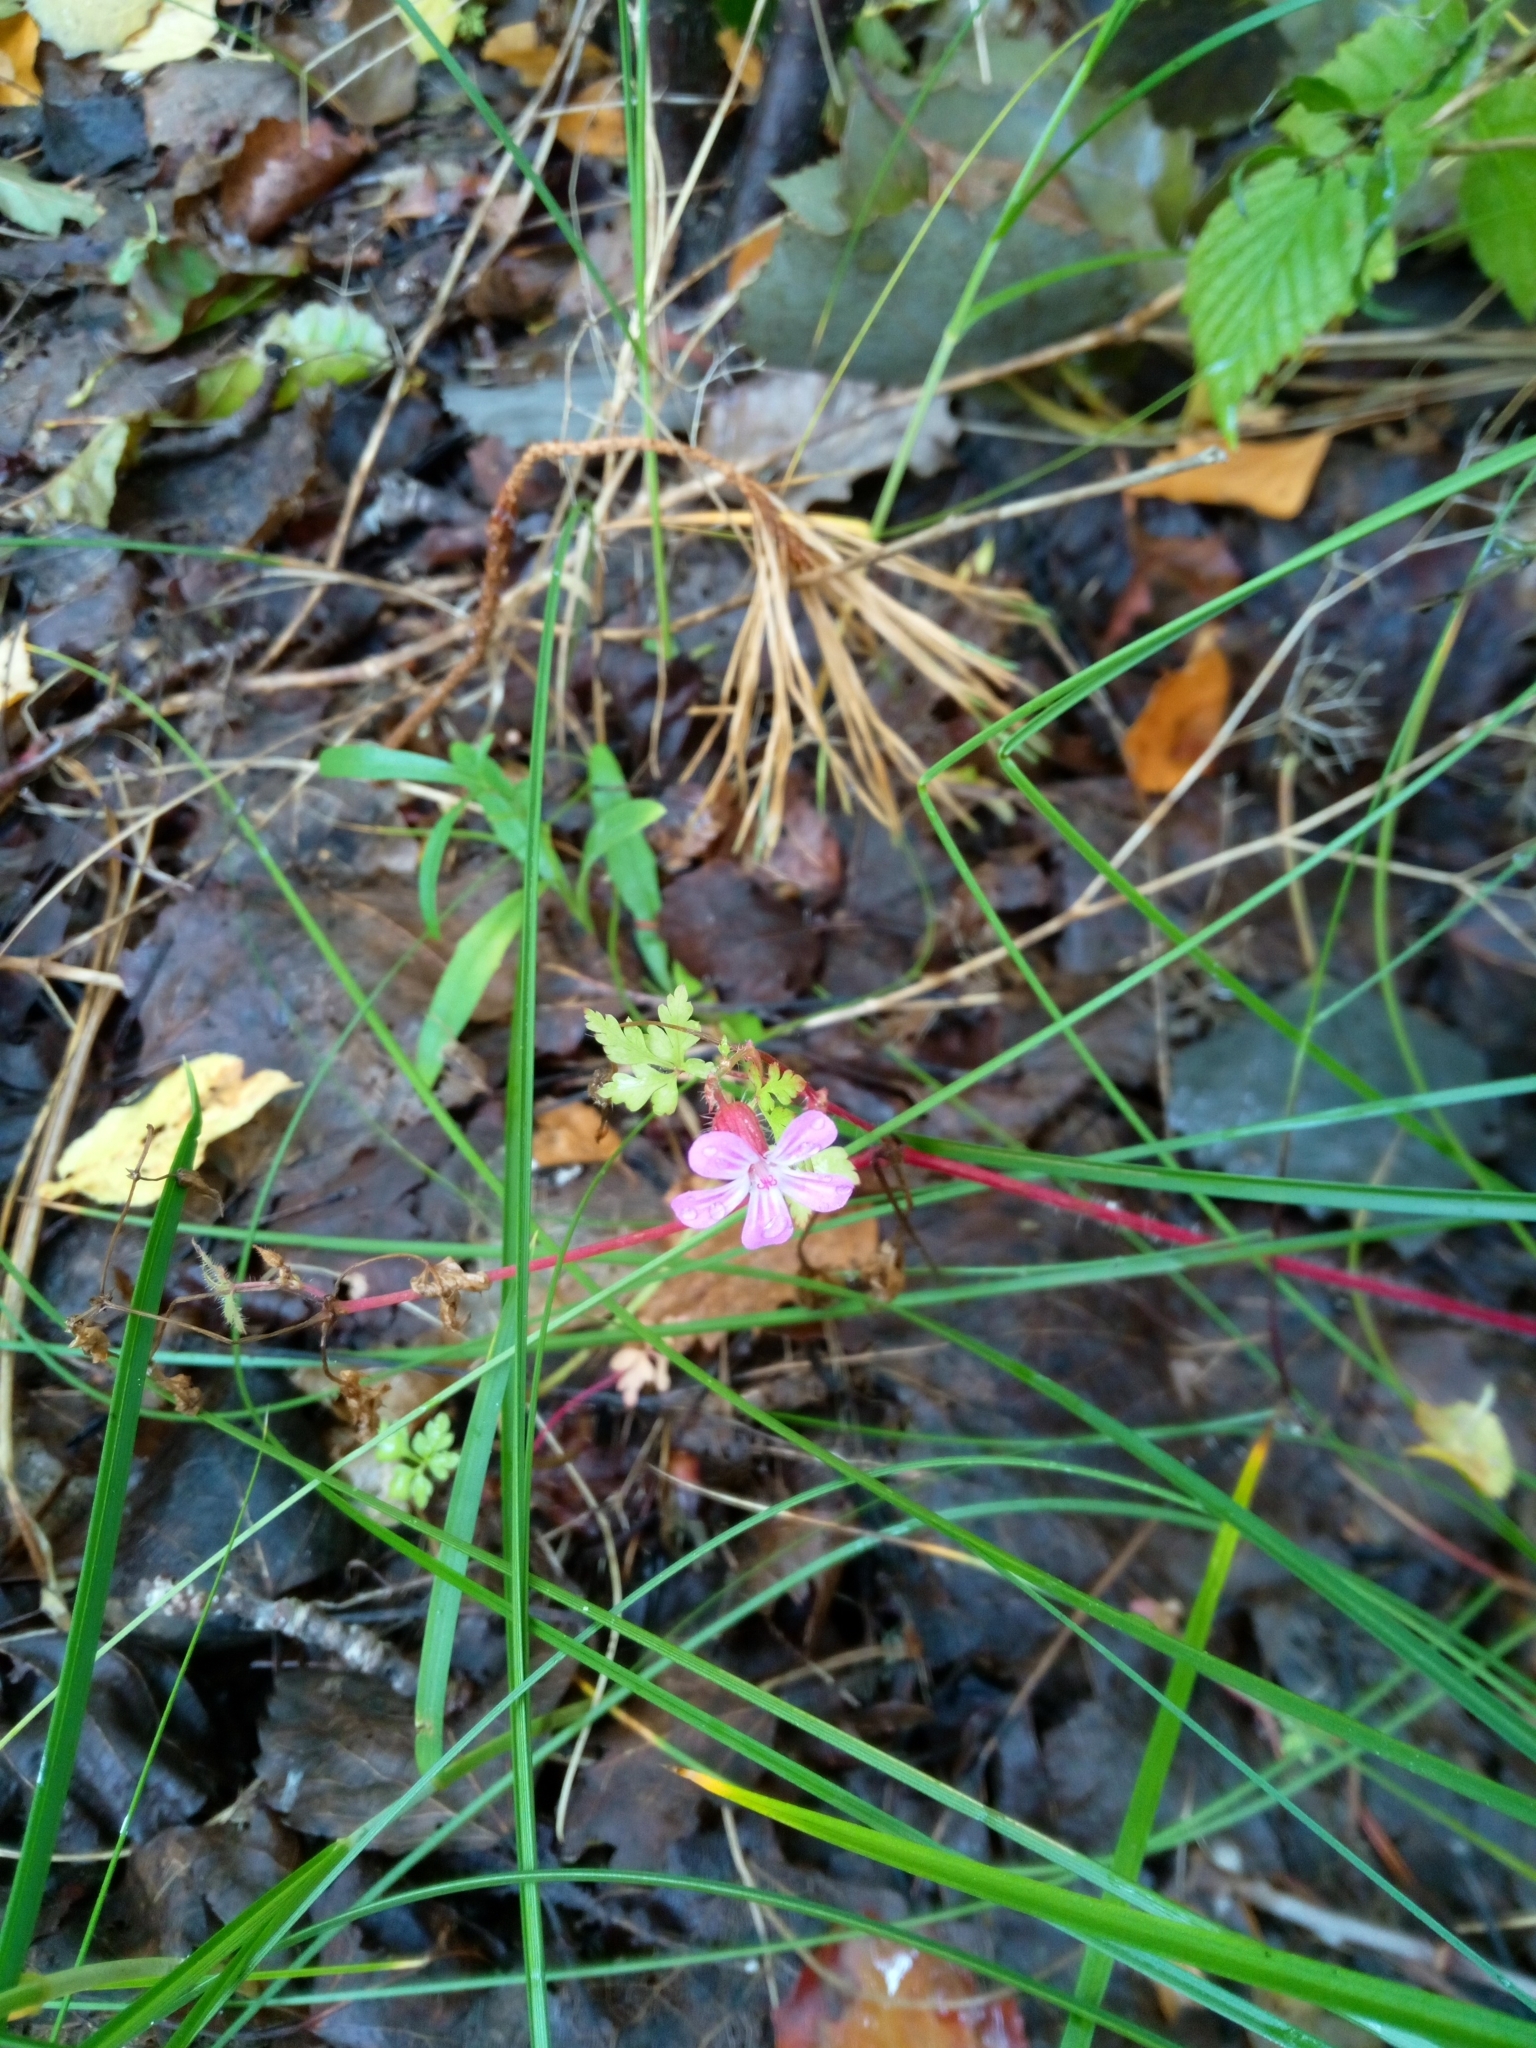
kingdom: Plantae
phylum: Tracheophyta
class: Magnoliopsida
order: Geraniales
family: Geraniaceae
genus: Geranium
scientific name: Geranium robertianum
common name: Herb-robert
